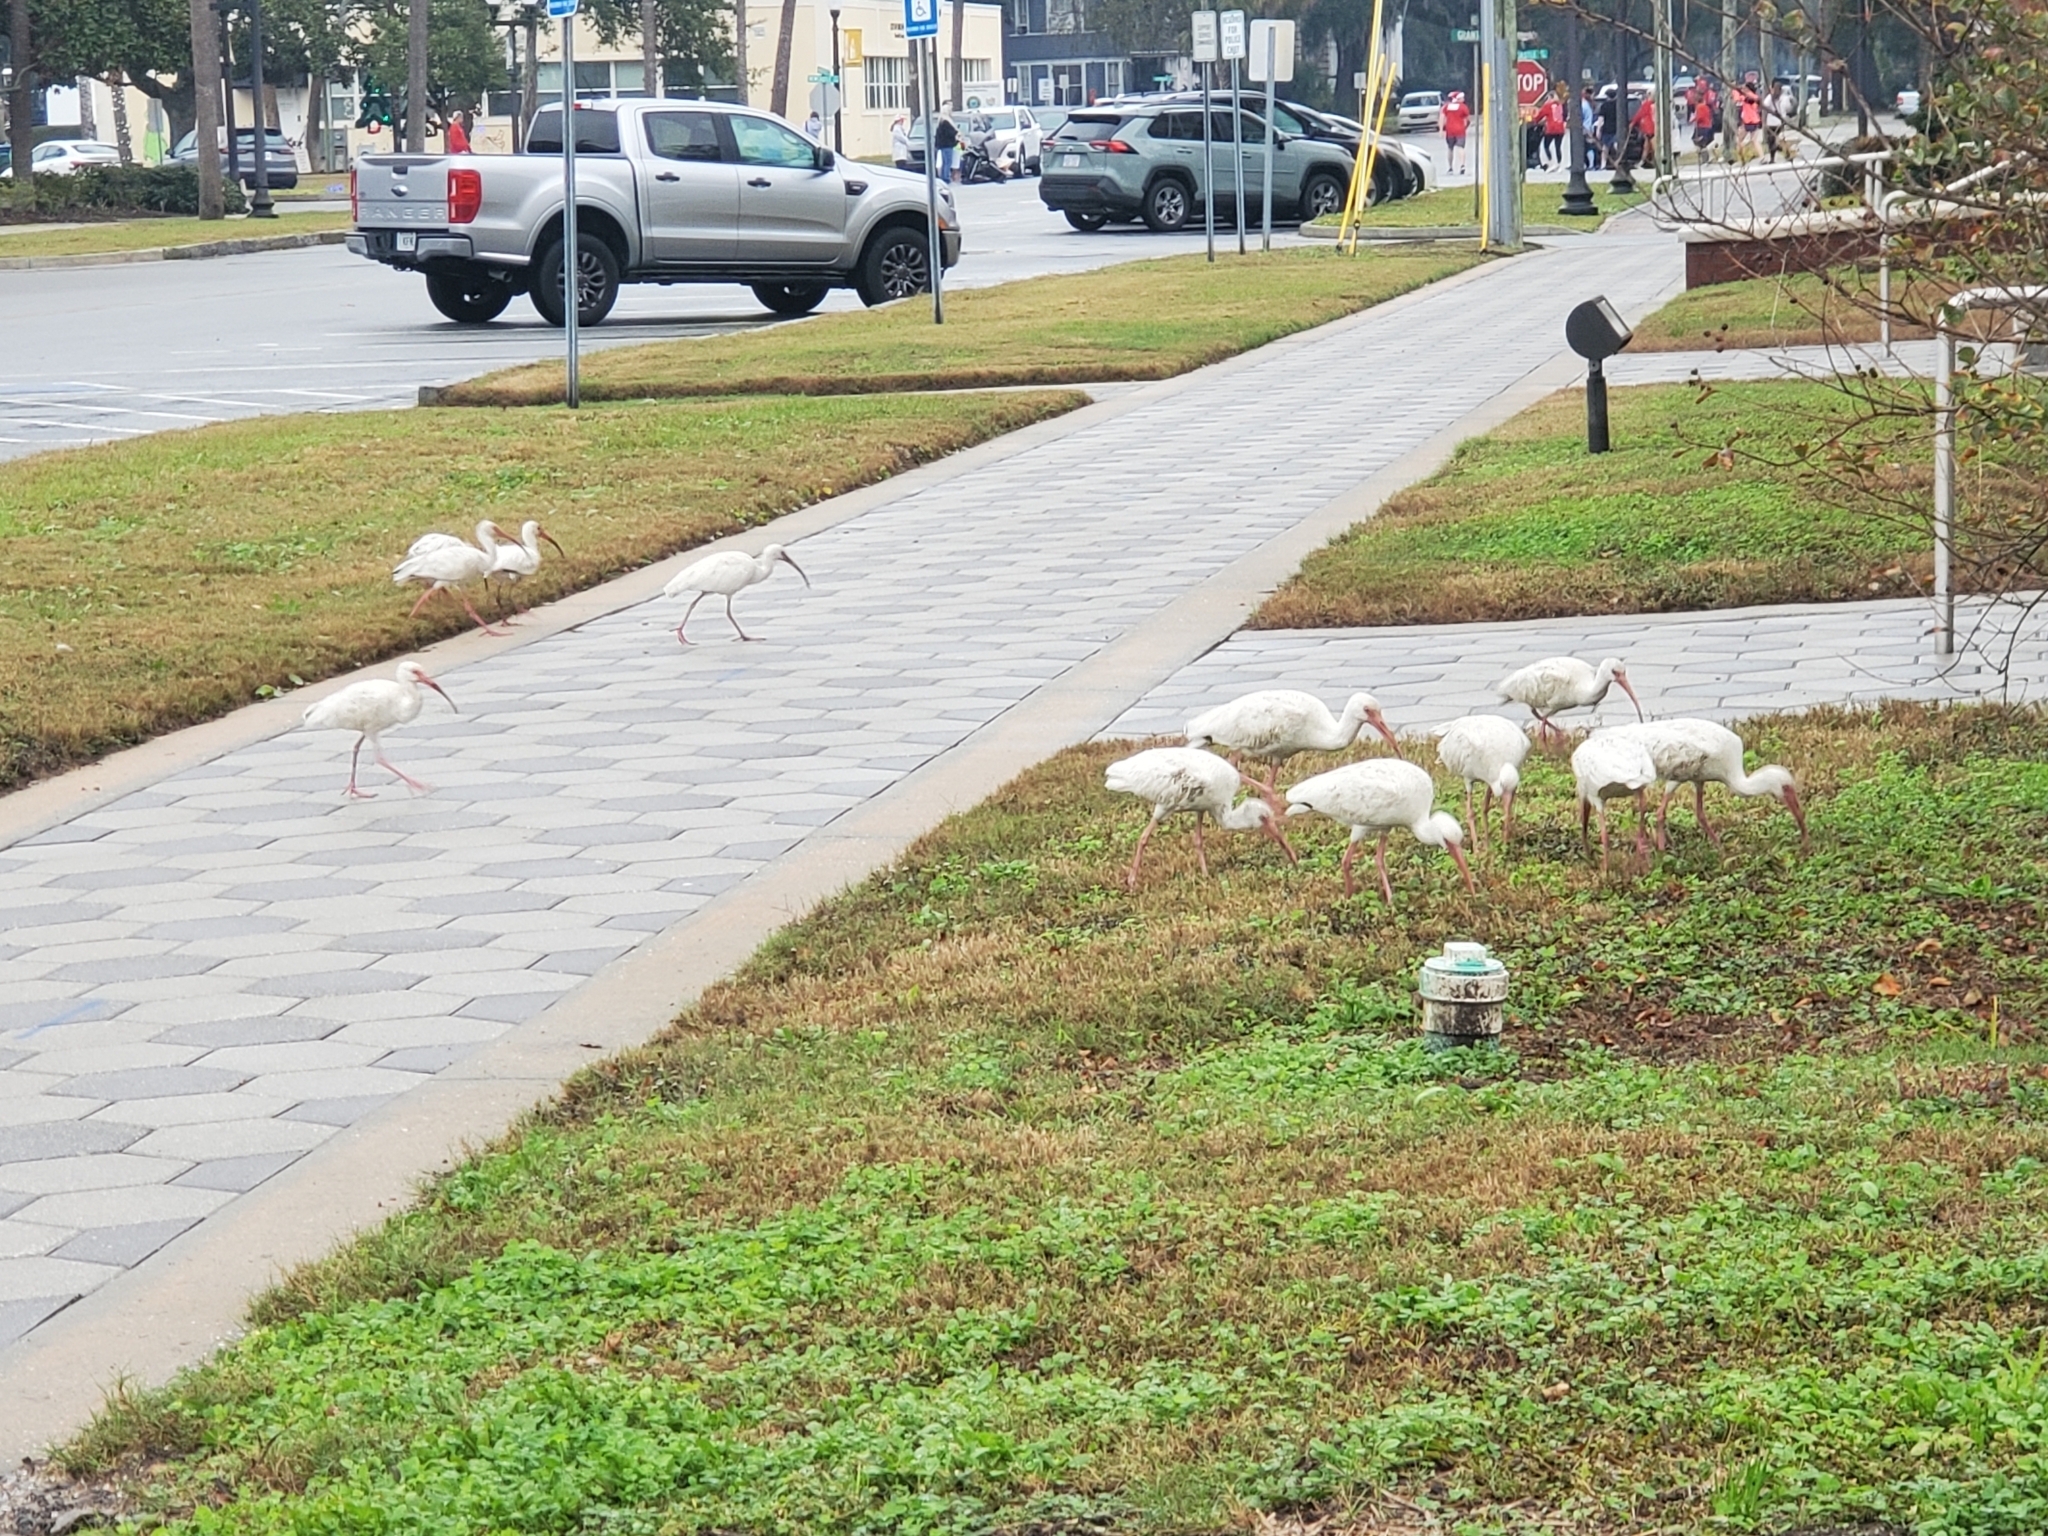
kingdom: Animalia
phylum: Chordata
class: Aves
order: Pelecaniformes
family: Threskiornithidae
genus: Eudocimus
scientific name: Eudocimus albus
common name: White ibis
